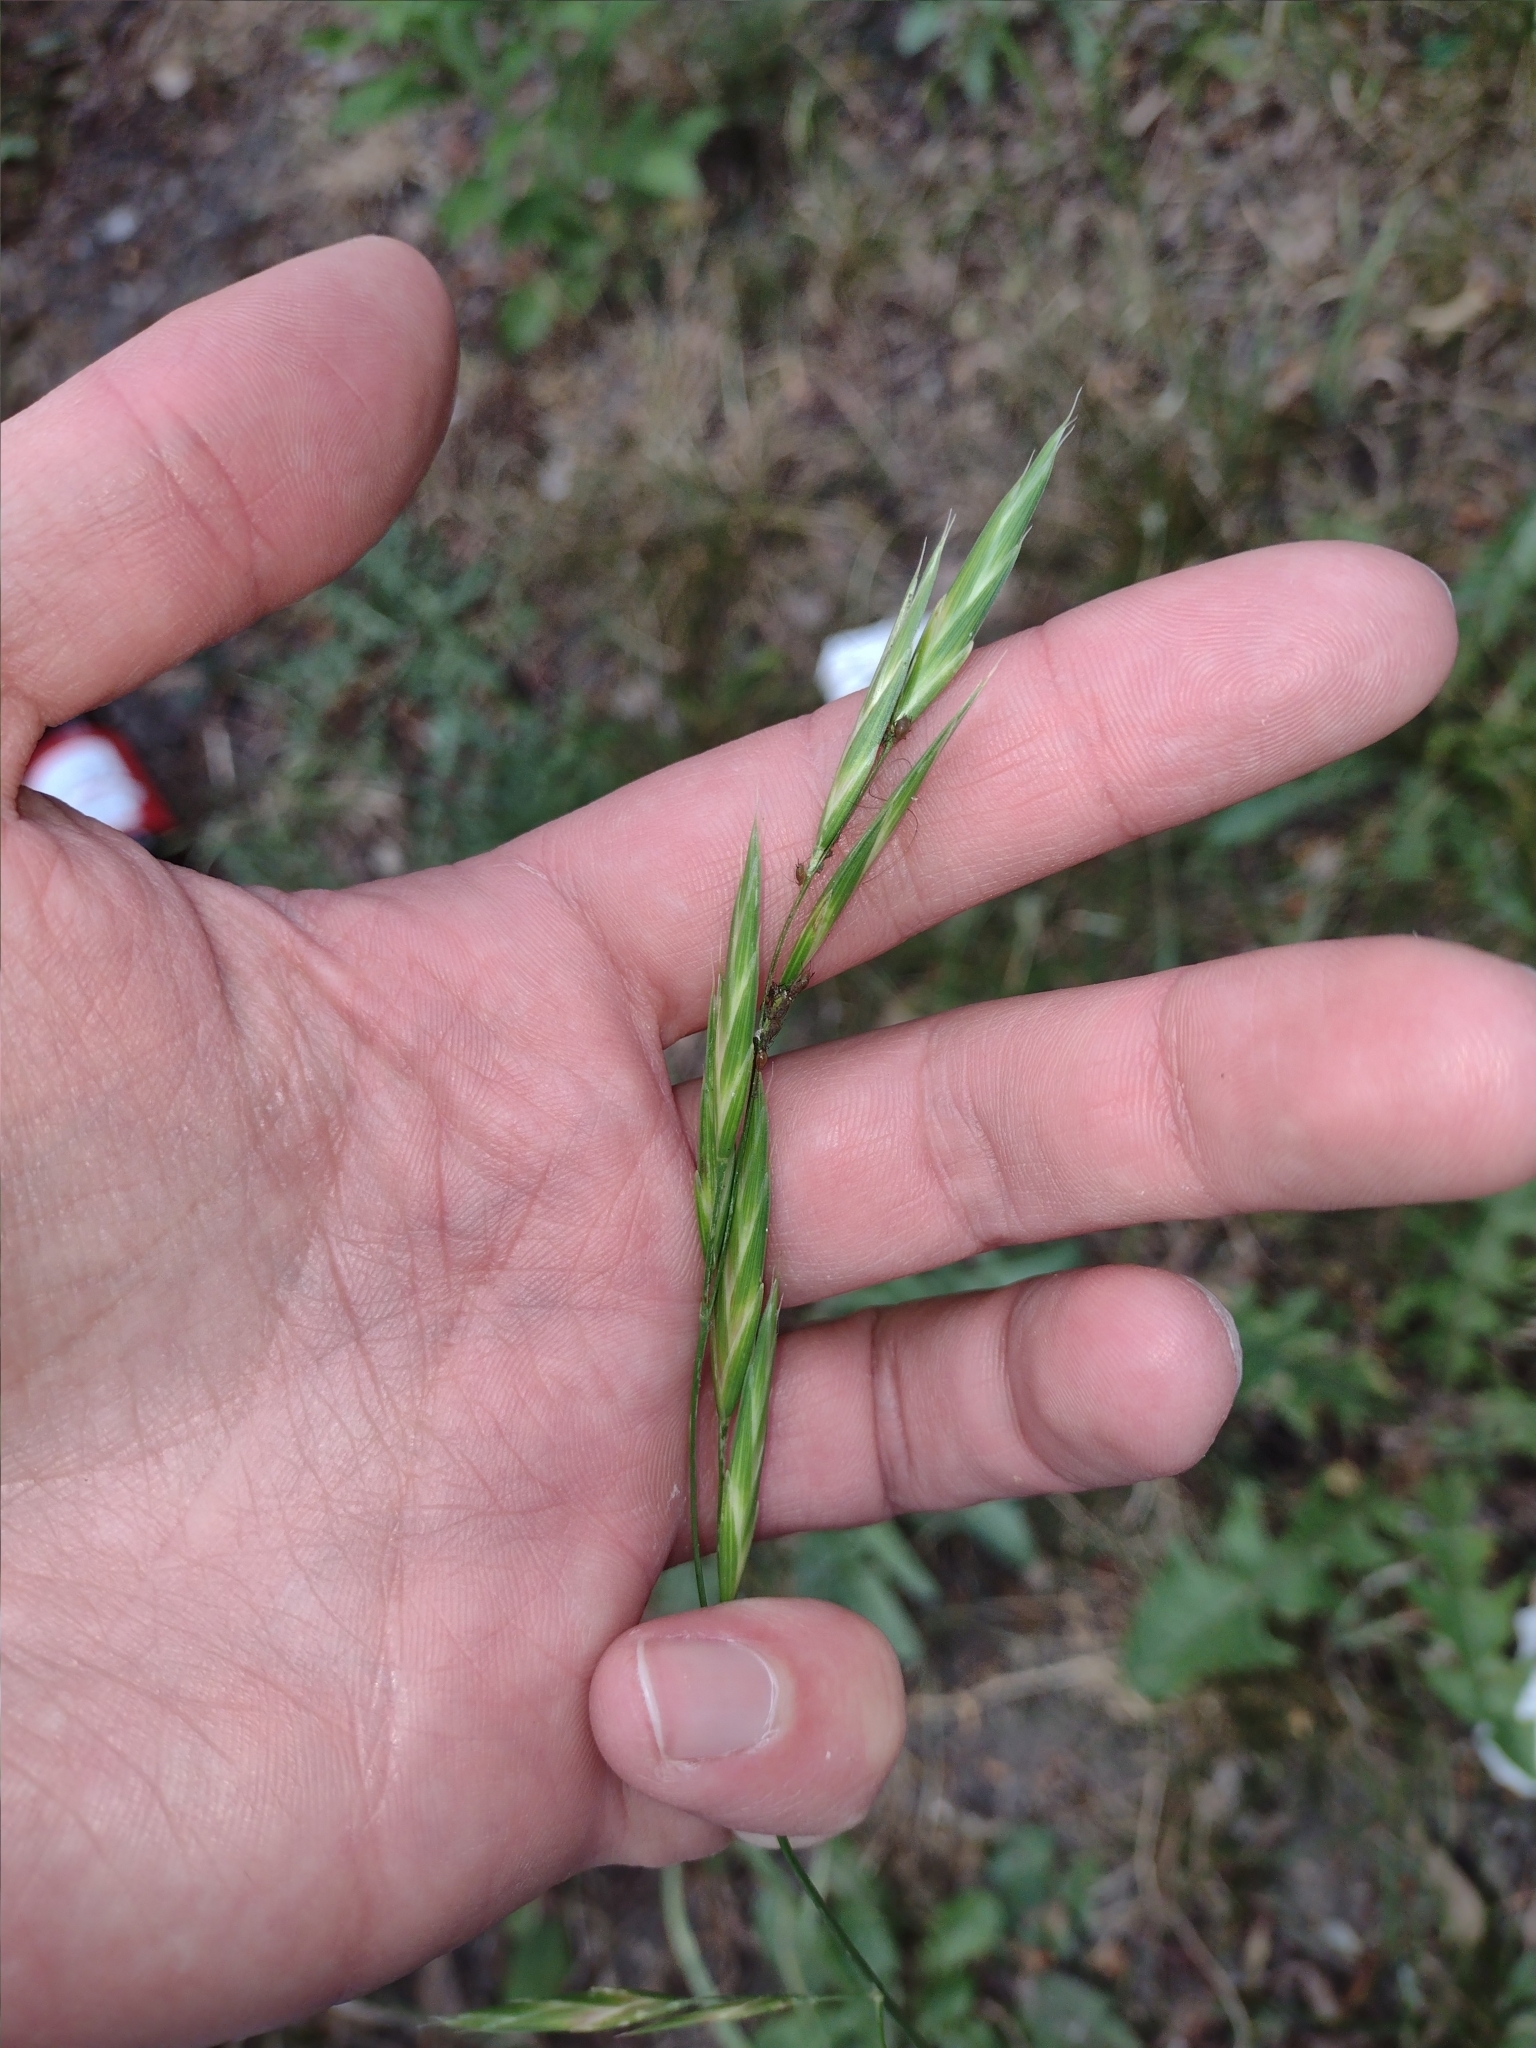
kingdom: Plantae
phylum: Tracheophyta
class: Liliopsida
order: Poales
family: Poaceae
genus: Bromus
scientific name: Bromus carinatus
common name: Mountain brome
